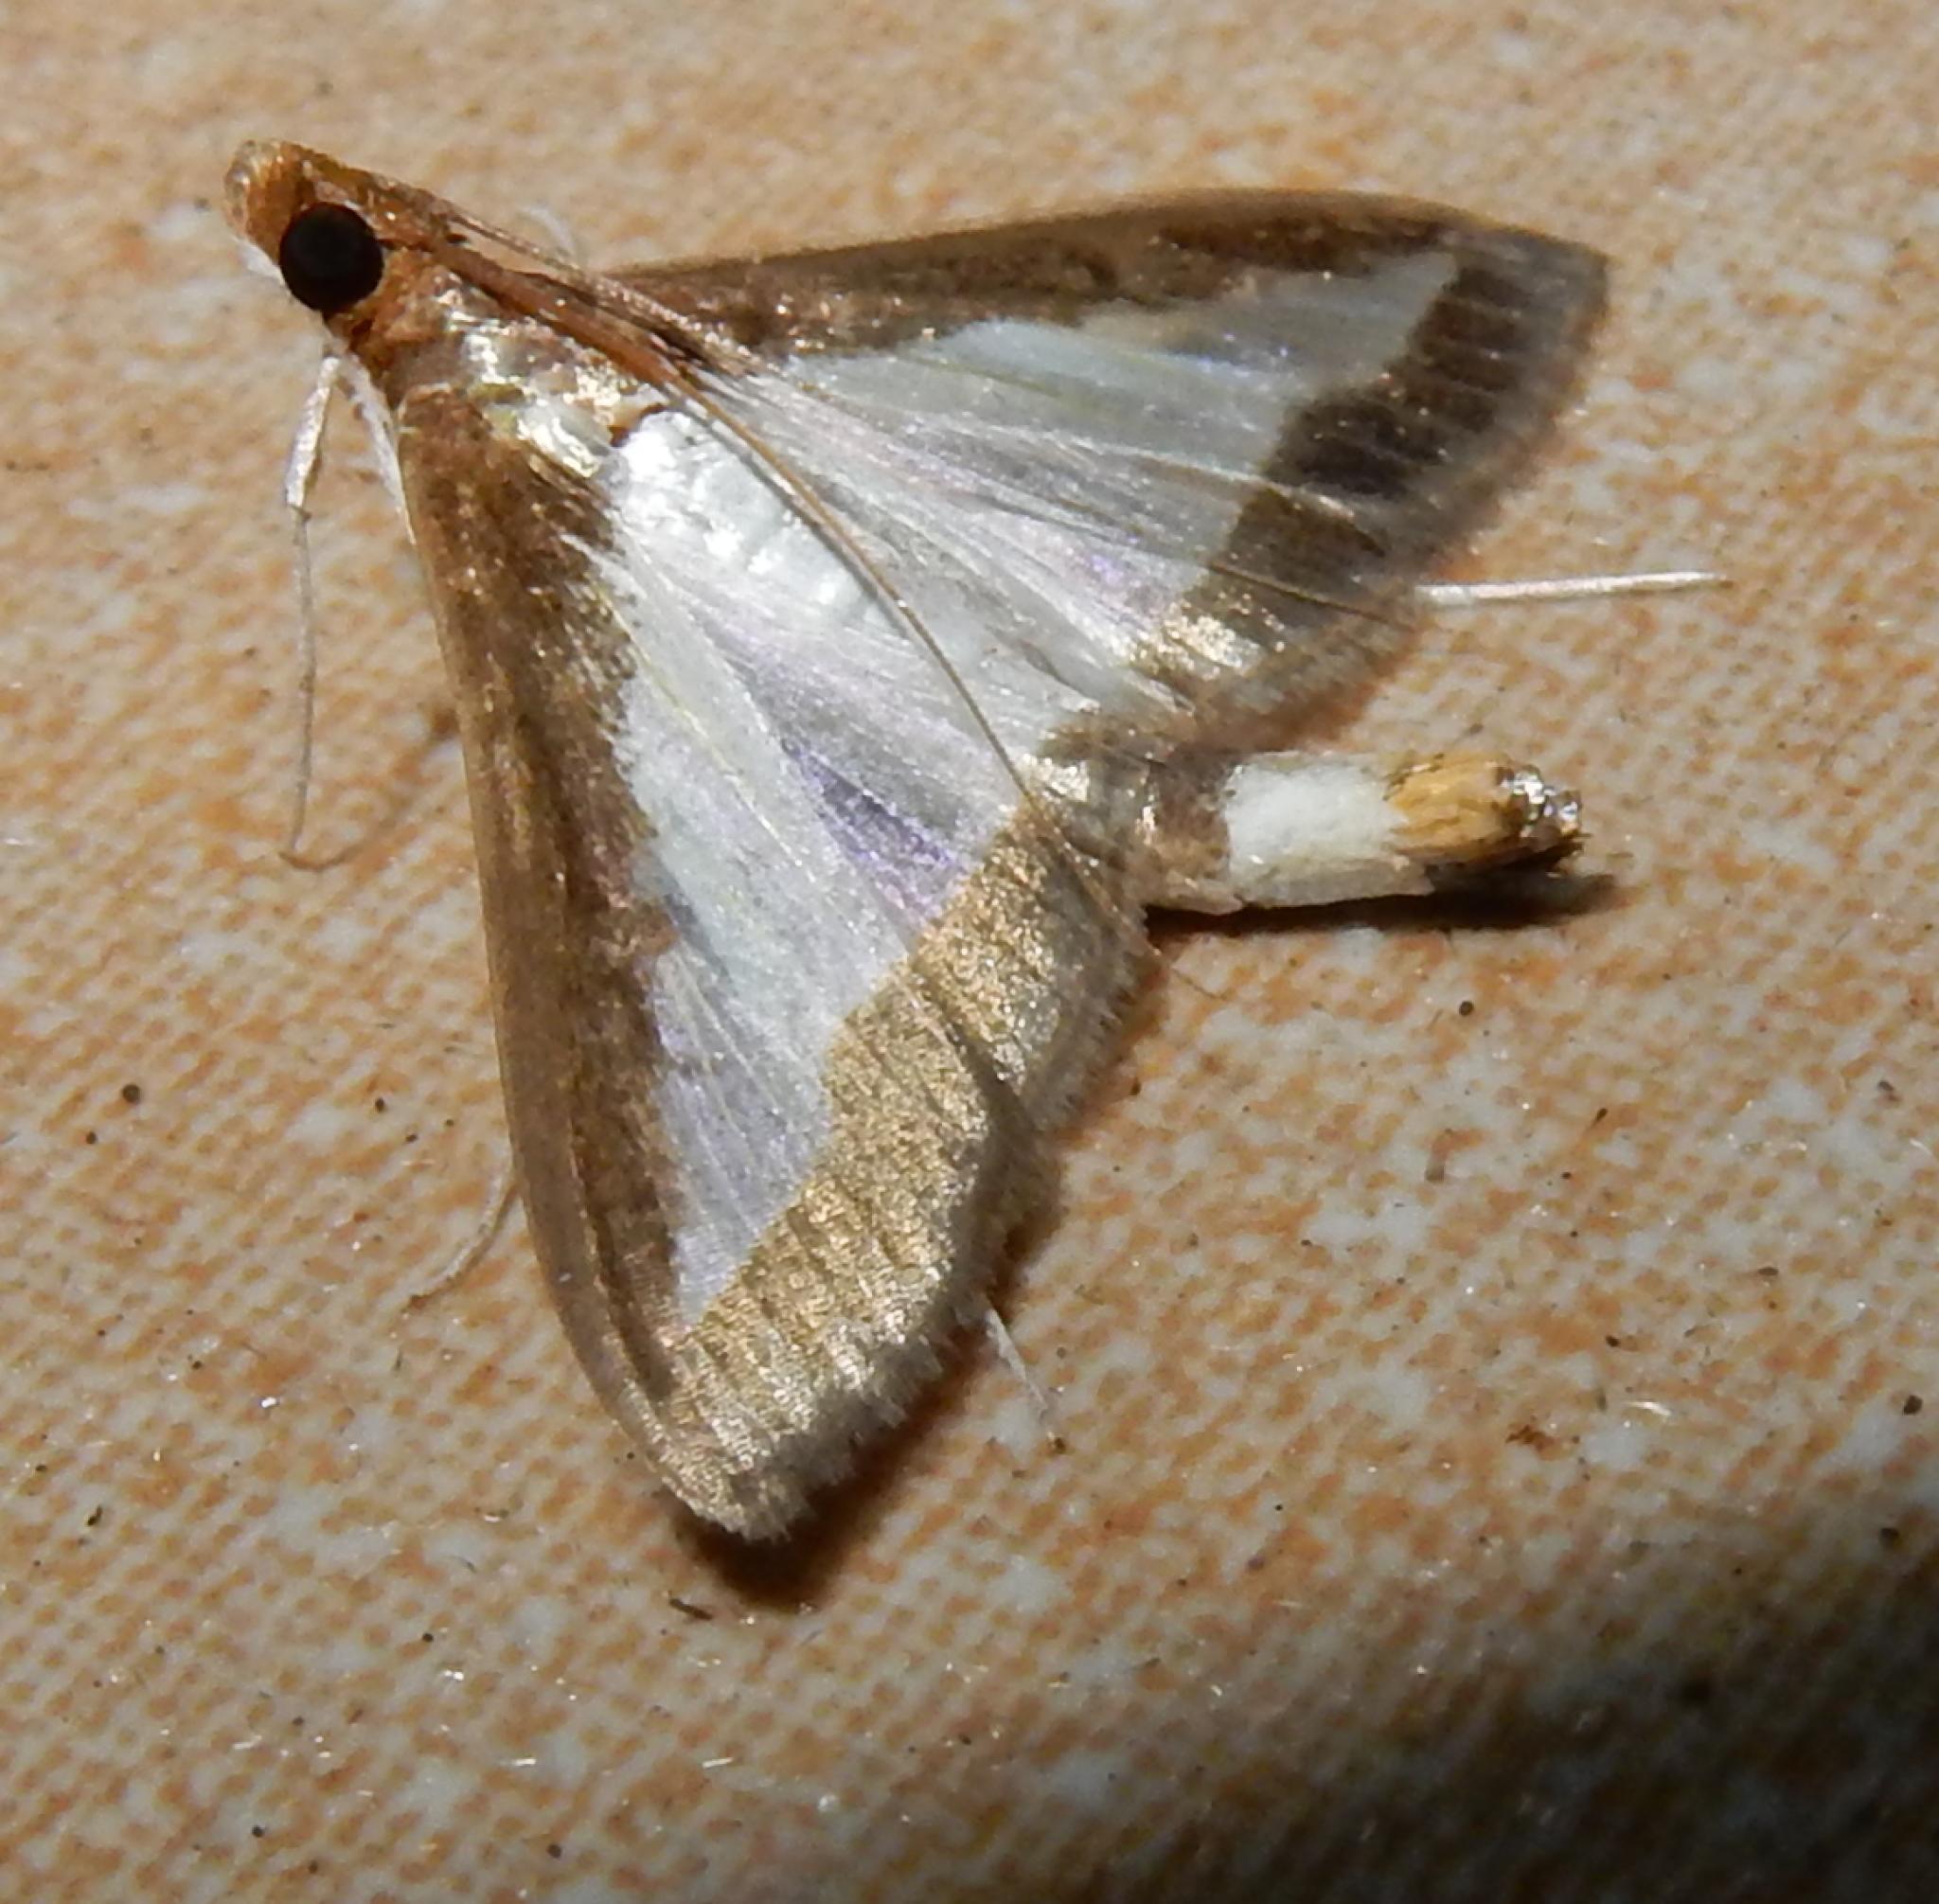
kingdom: Animalia
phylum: Arthropoda
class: Insecta
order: Lepidoptera
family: Crambidae
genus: Diaphania
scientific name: Diaphania indica
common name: Cucumber moth
